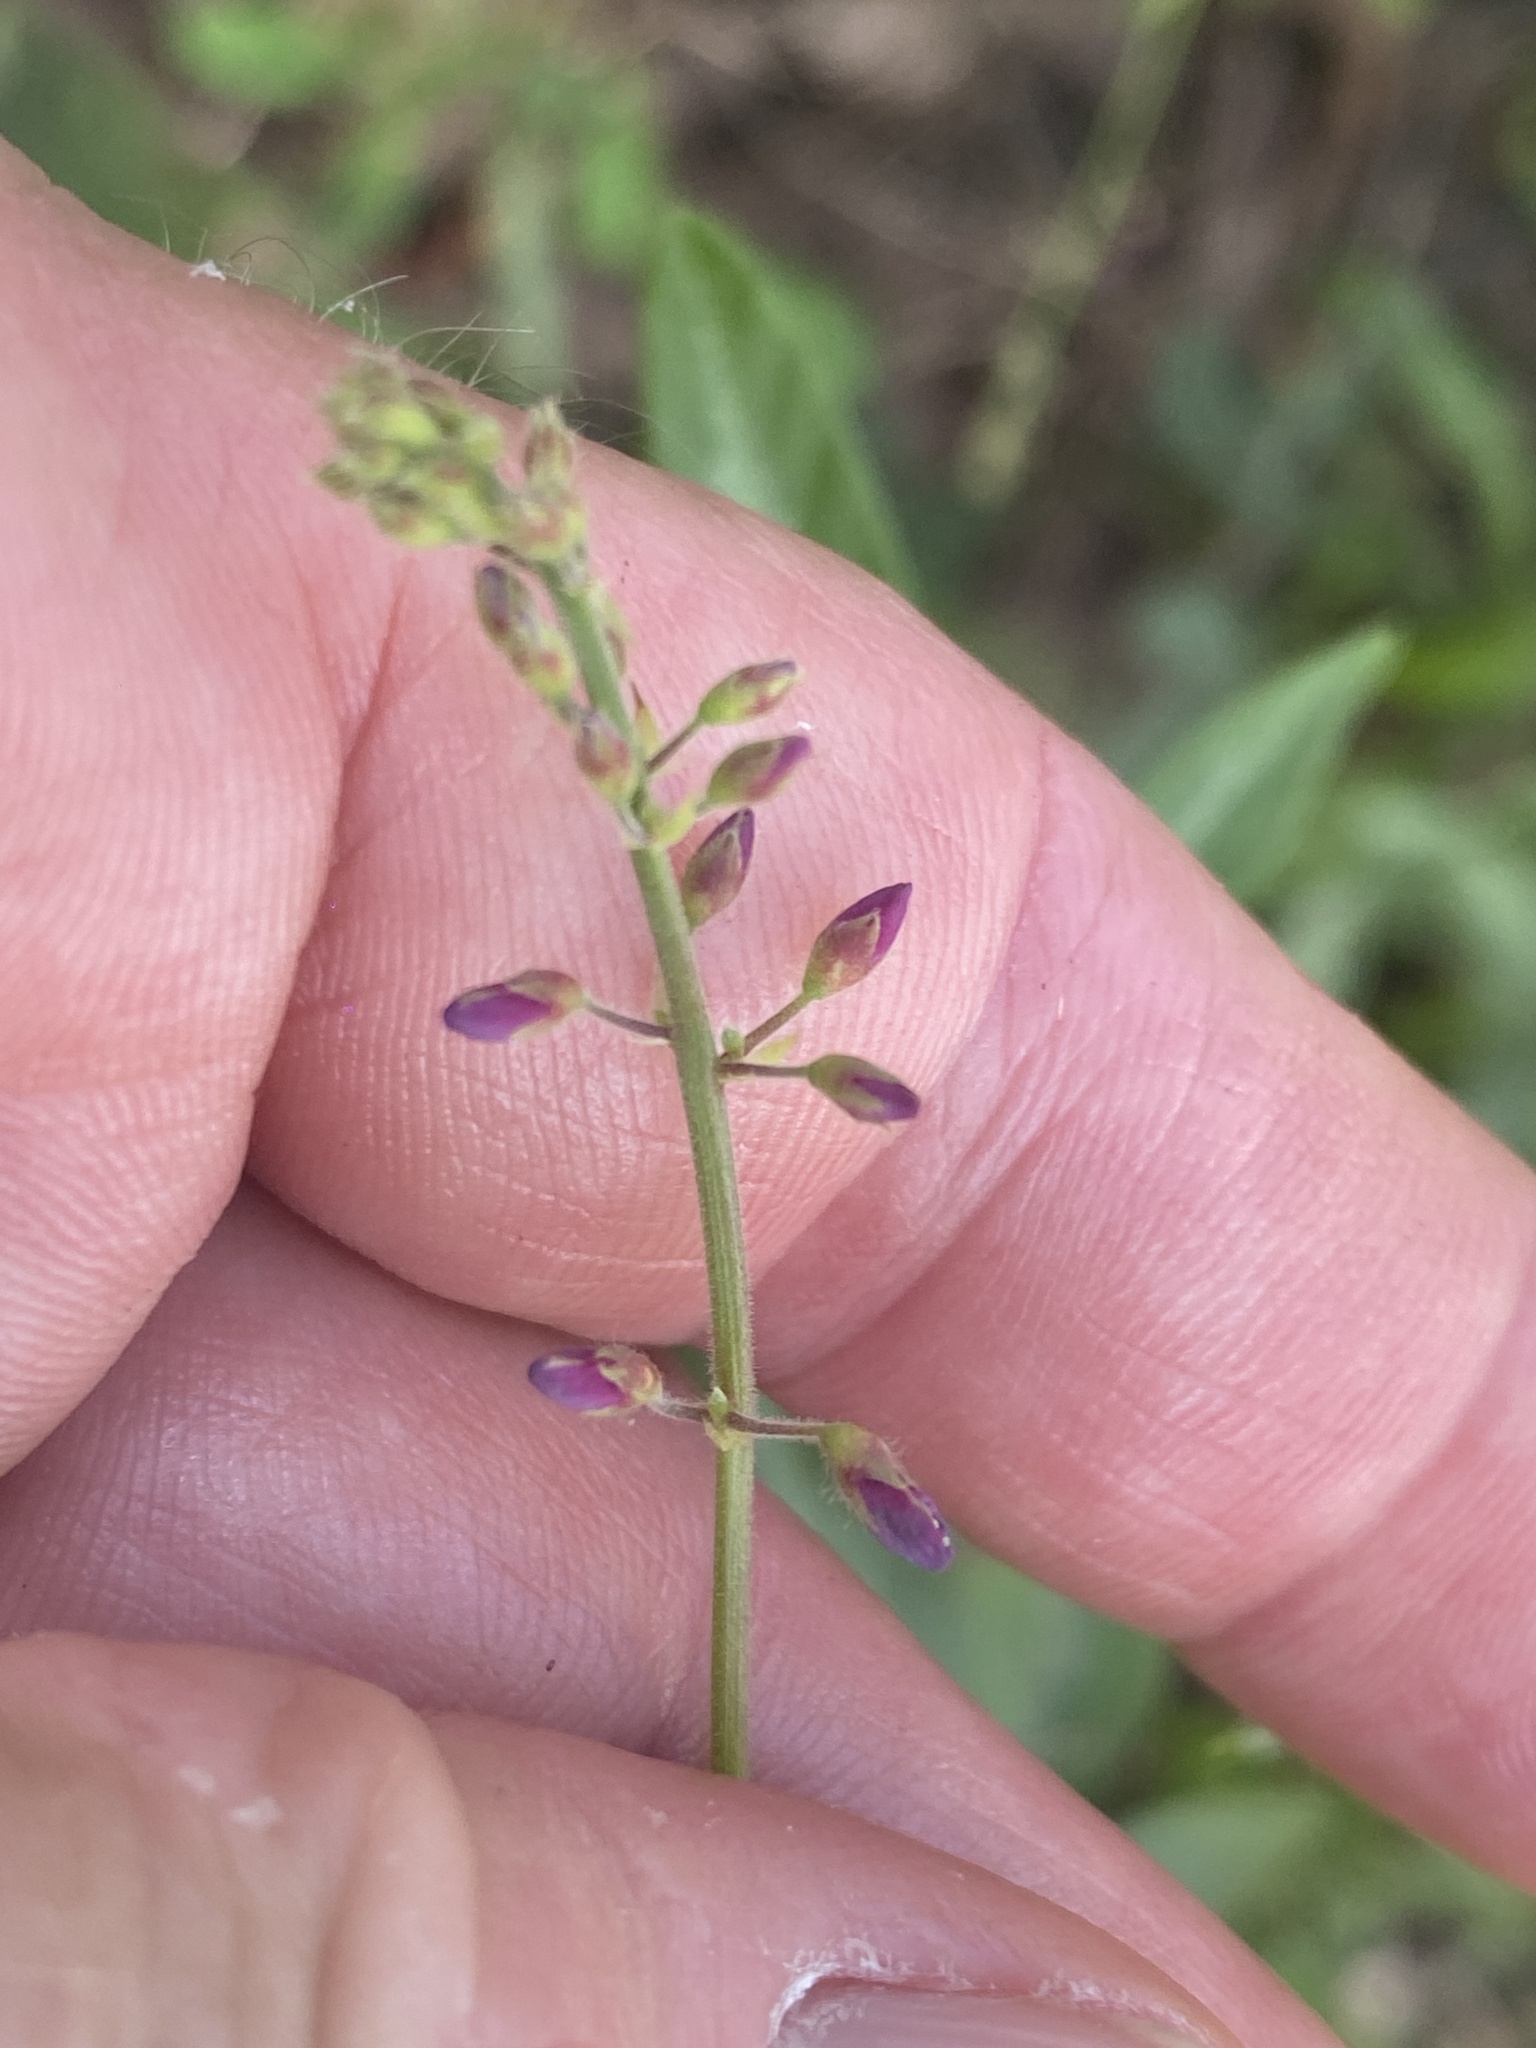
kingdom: Plantae
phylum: Tracheophyta
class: Magnoliopsida
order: Fabales
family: Fabaceae
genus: Desmodium
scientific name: Desmodium incanum
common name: Tickclover
